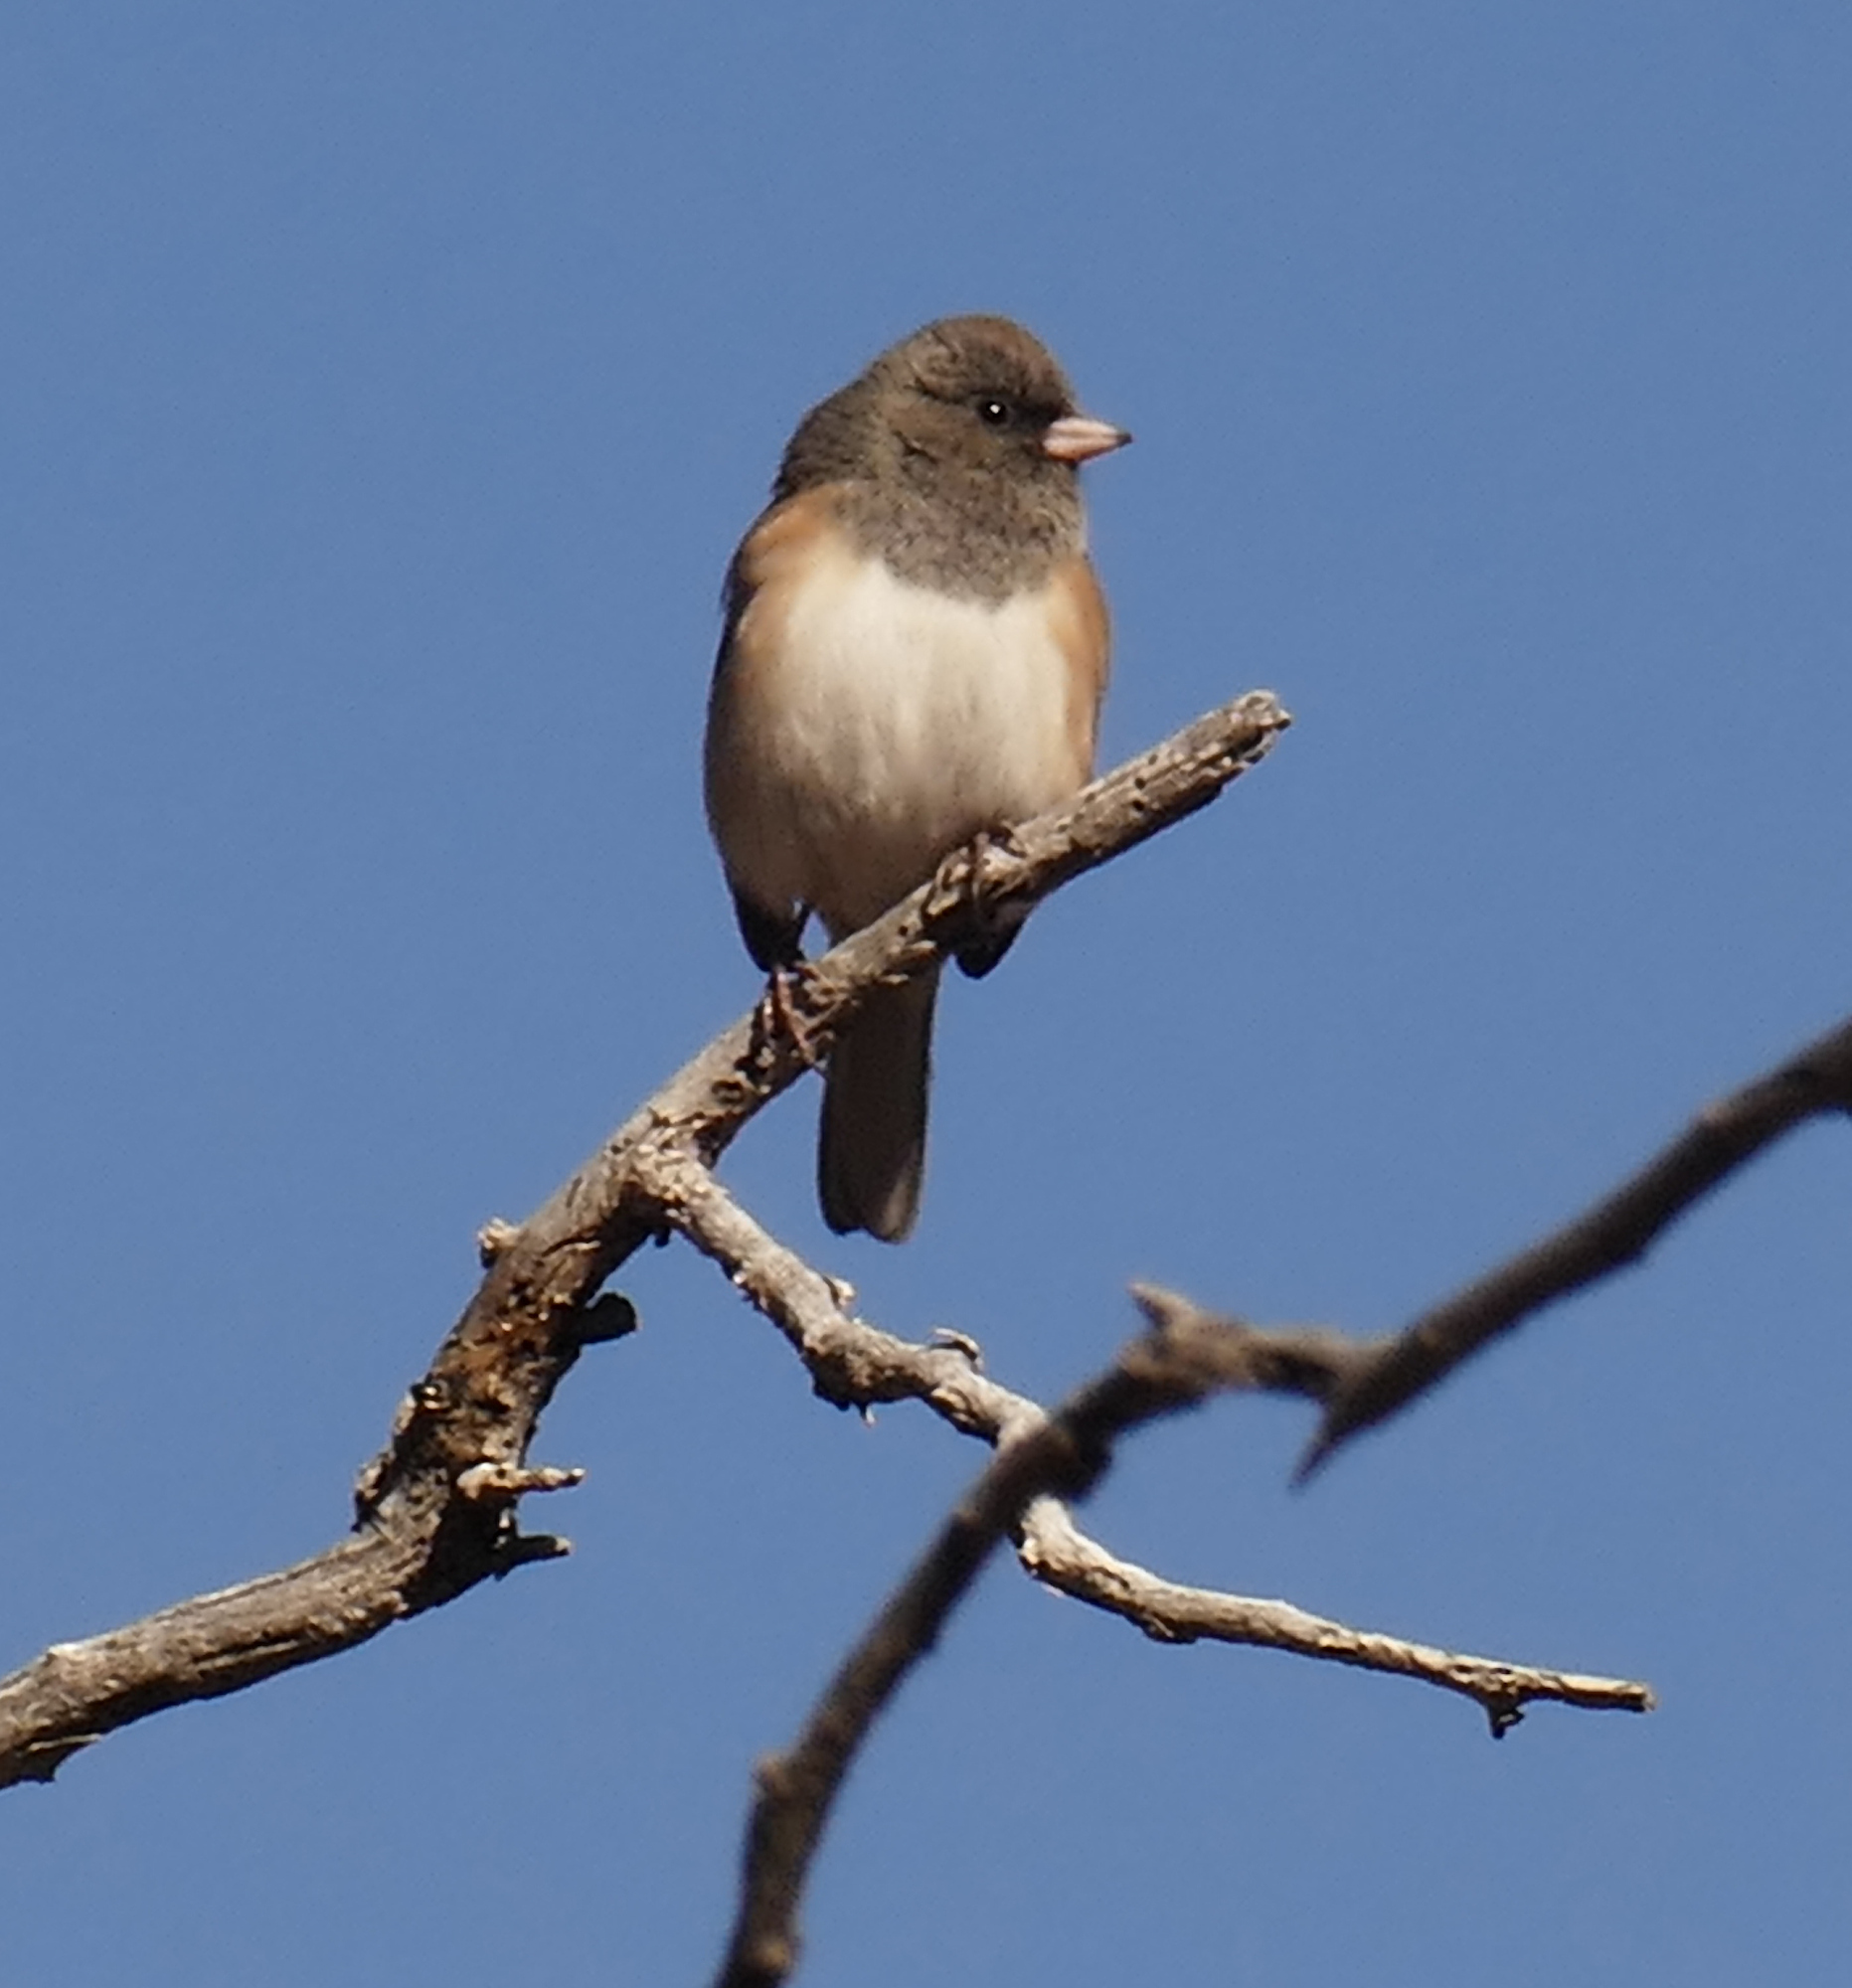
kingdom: Animalia
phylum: Chordata
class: Aves
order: Passeriformes
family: Passerellidae
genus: Junco
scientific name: Junco hyemalis
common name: Dark-eyed junco
